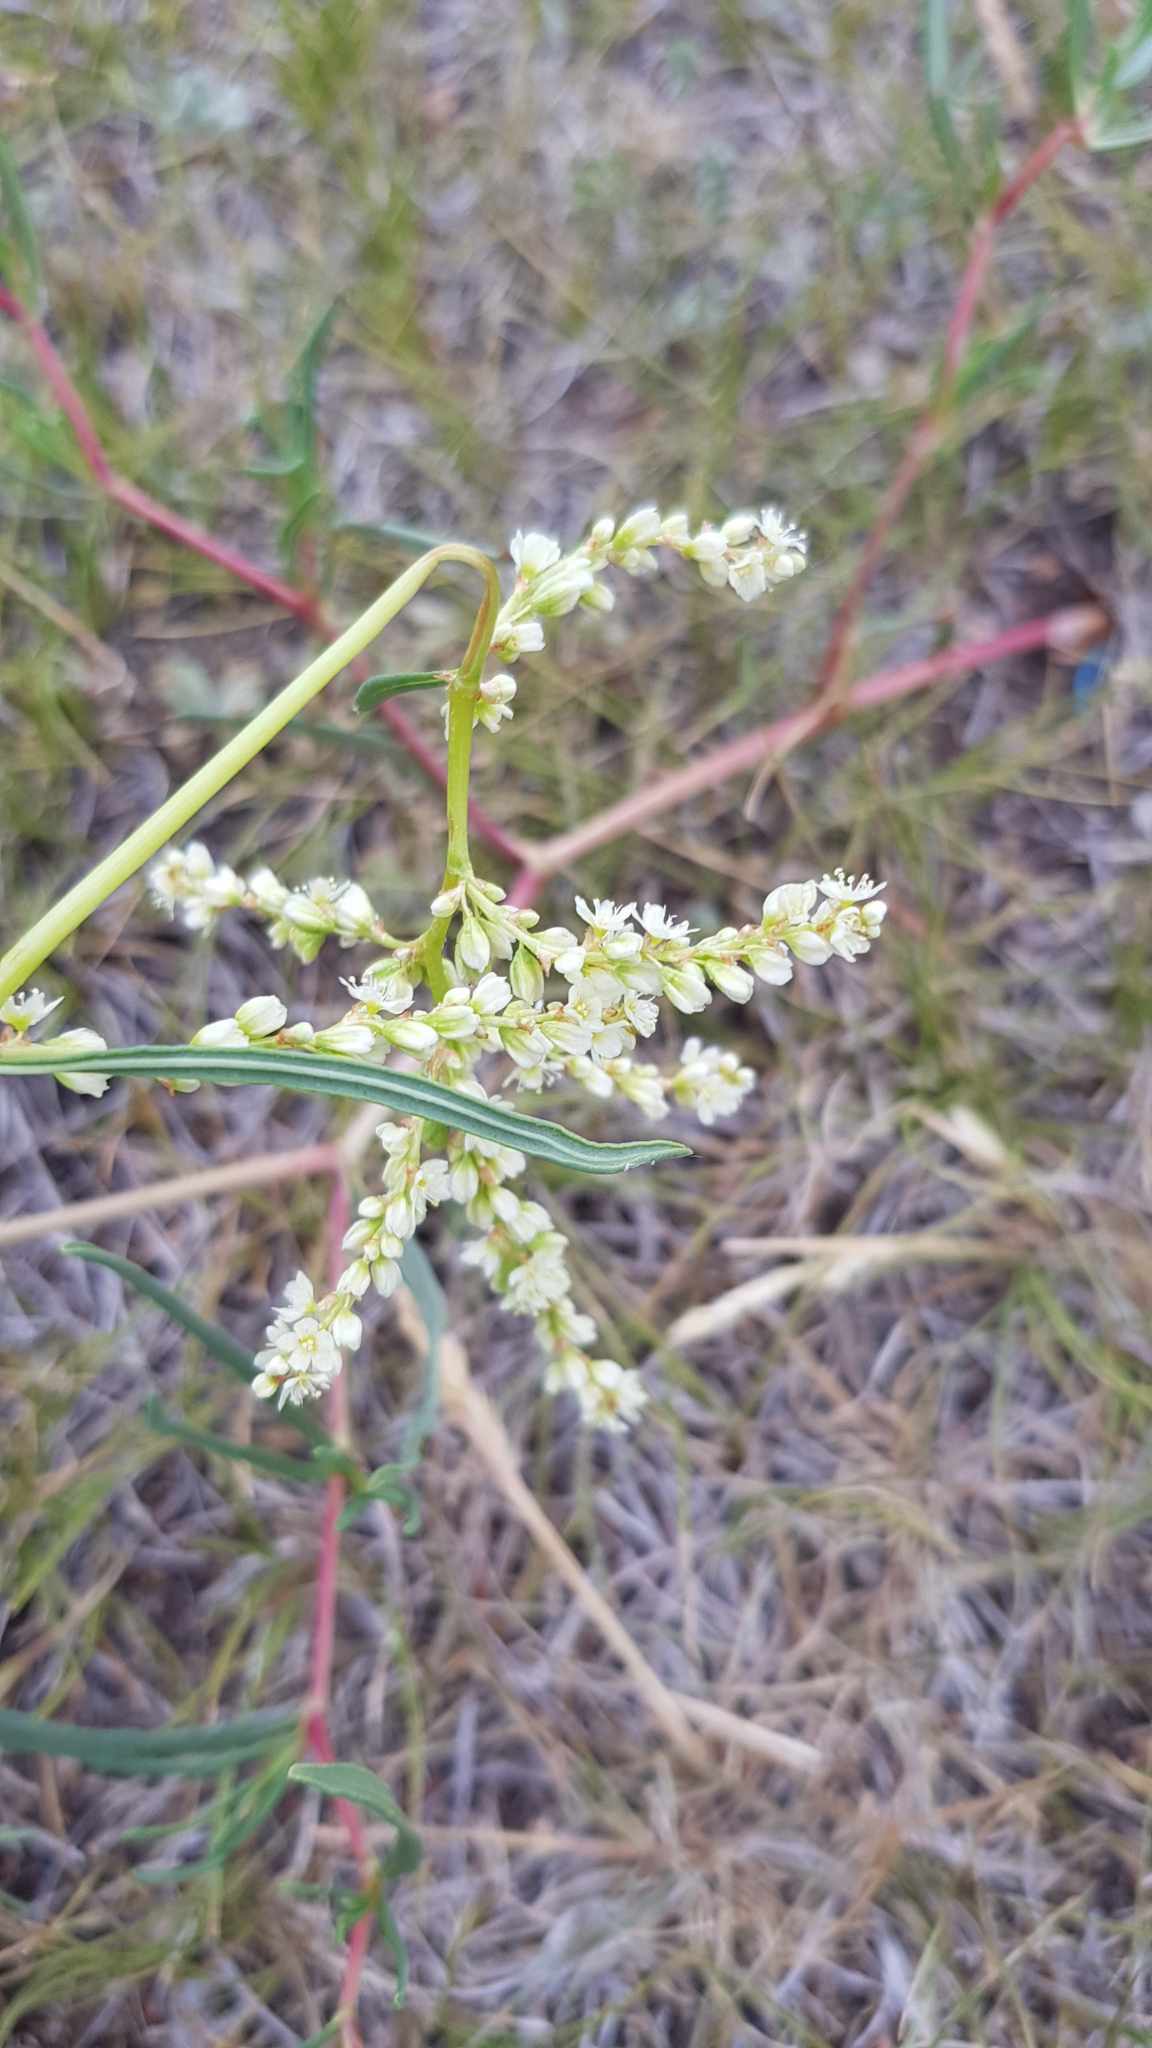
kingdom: Plantae
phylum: Tracheophyta
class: Magnoliopsida
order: Caryophyllales
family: Polygonaceae
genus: Persicaria
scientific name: Persicaria angustifolia
